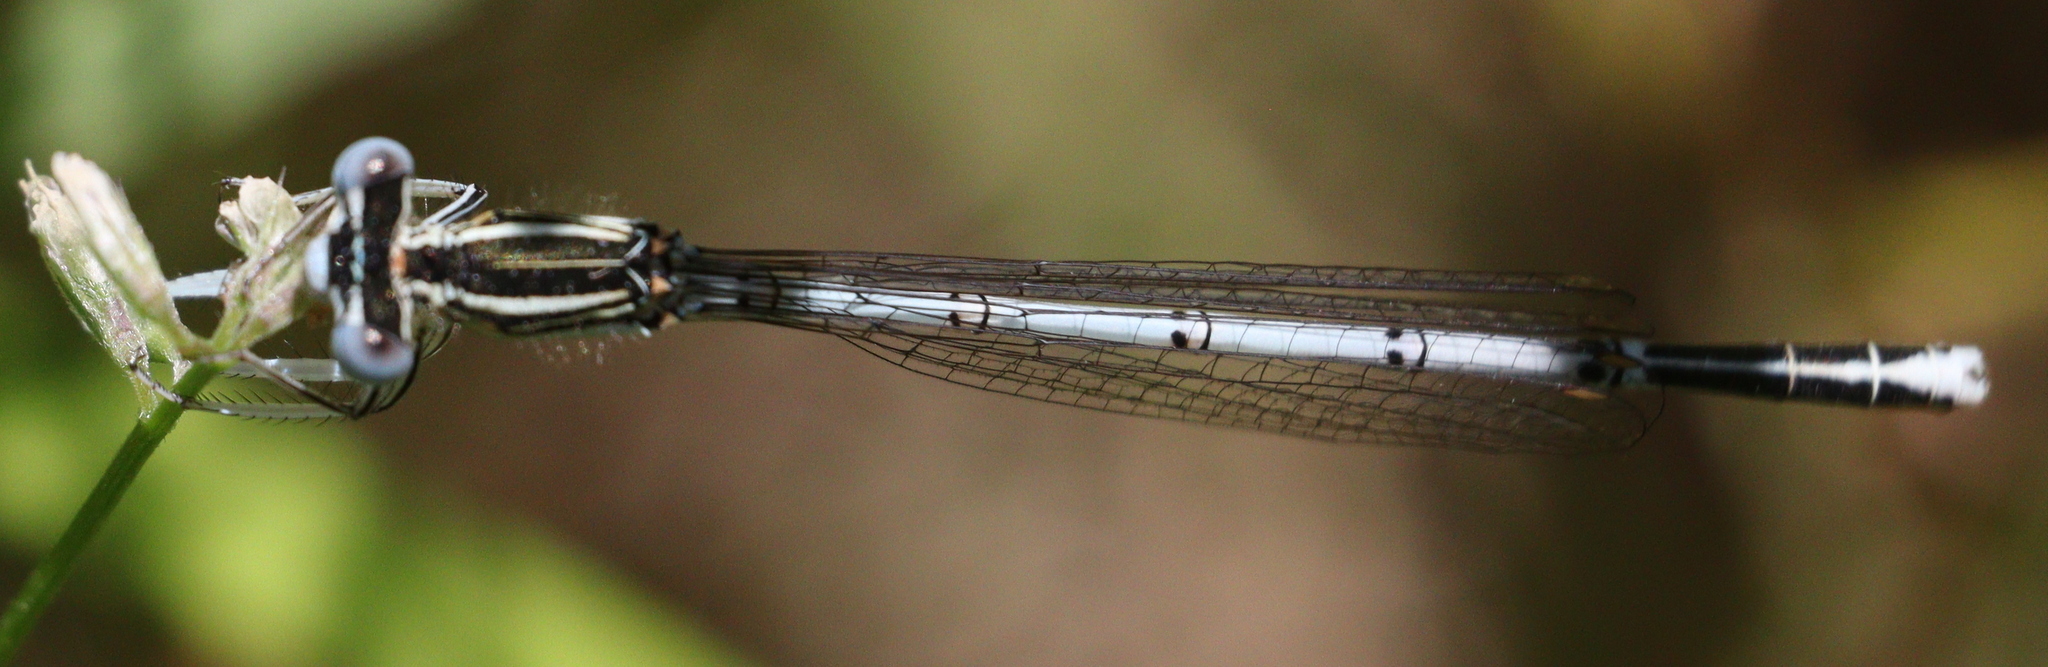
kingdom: Animalia
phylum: Arthropoda
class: Insecta
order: Odonata
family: Platycnemididae
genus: Platycnemis
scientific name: Platycnemis pennipes
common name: White-legged damselfly
